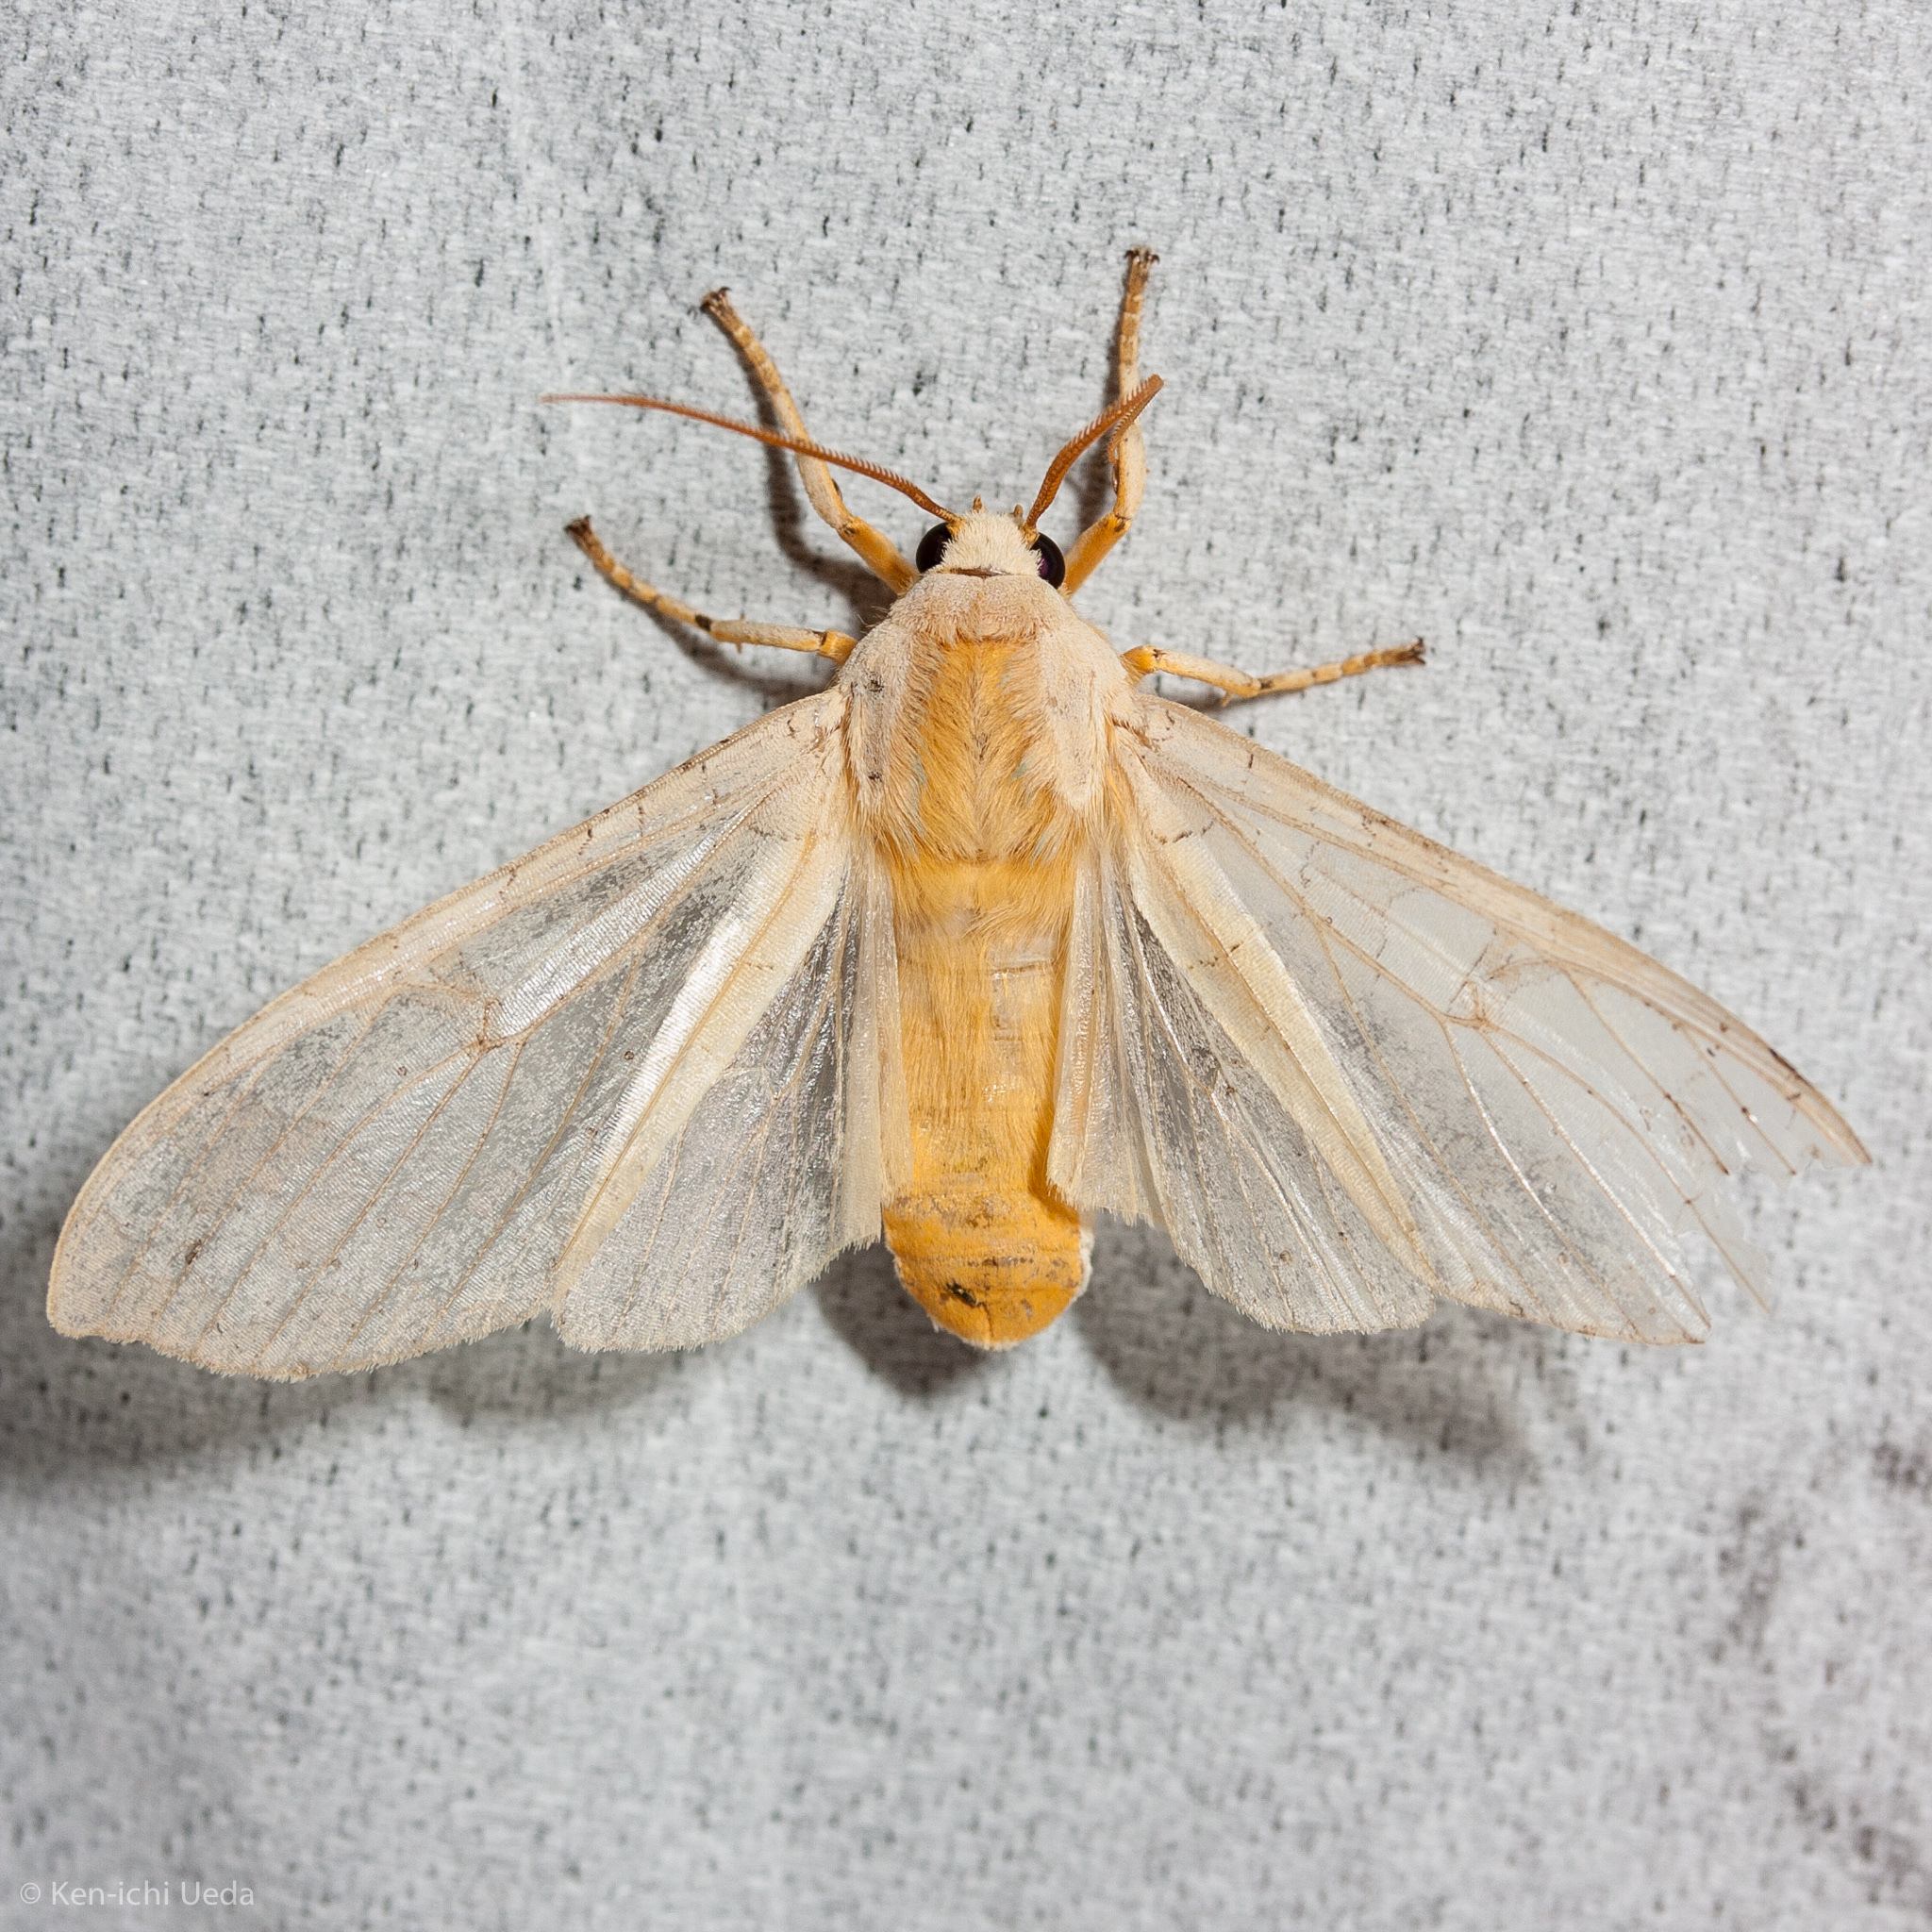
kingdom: Animalia
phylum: Arthropoda
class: Insecta
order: Lepidoptera
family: Erebidae
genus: Halysidota
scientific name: Halysidota
